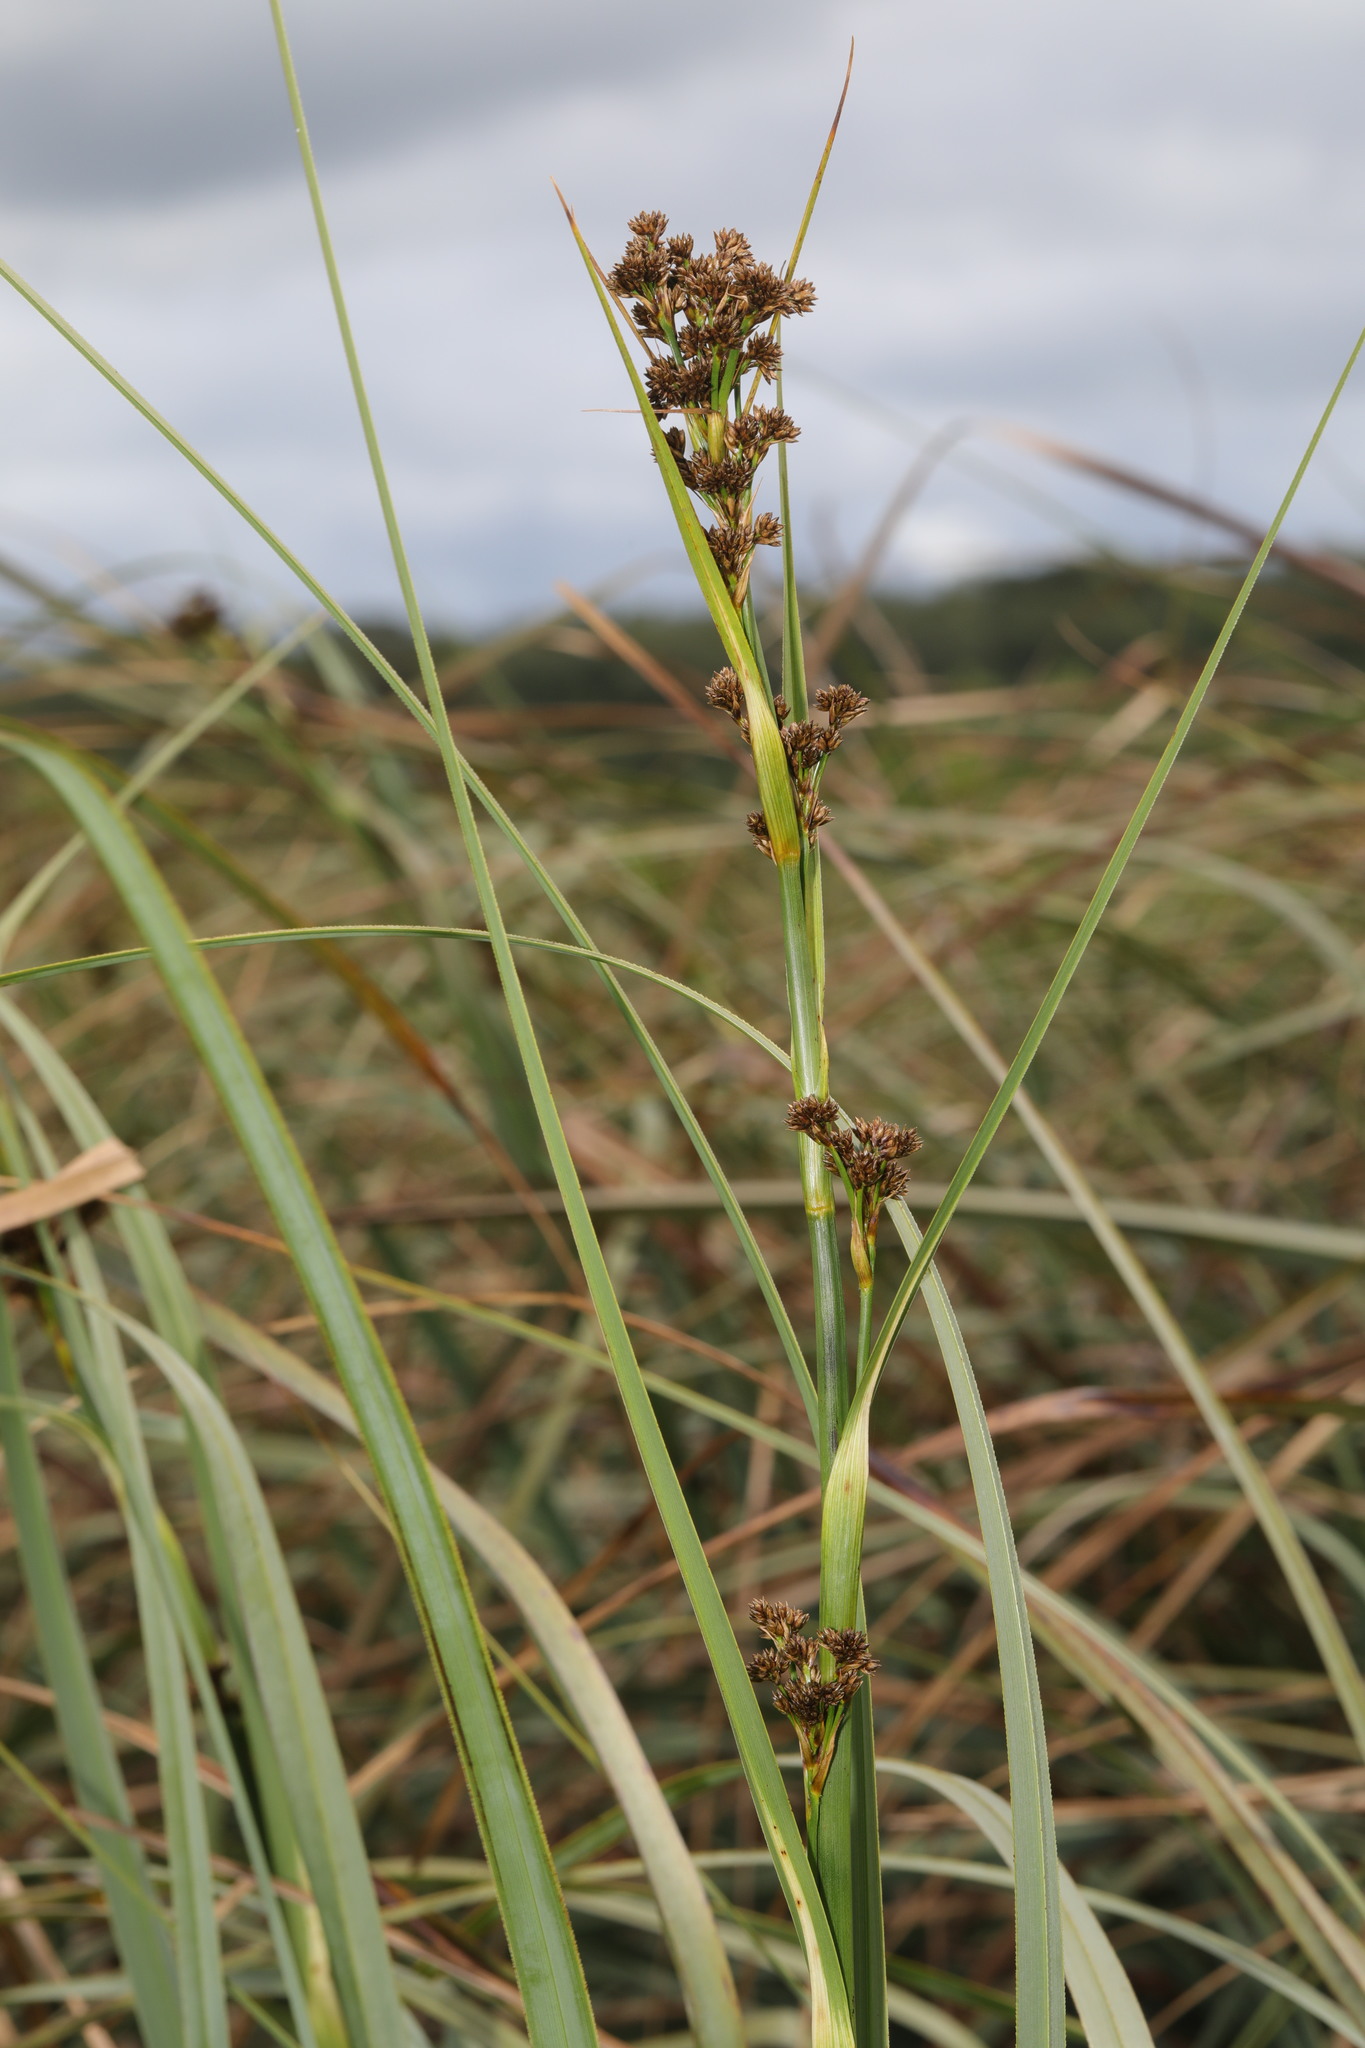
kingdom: Plantae
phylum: Tracheophyta
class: Liliopsida
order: Poales
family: Cyperaceae
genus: Cladium
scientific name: Cladium mariscus
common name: Great fen-sedge
